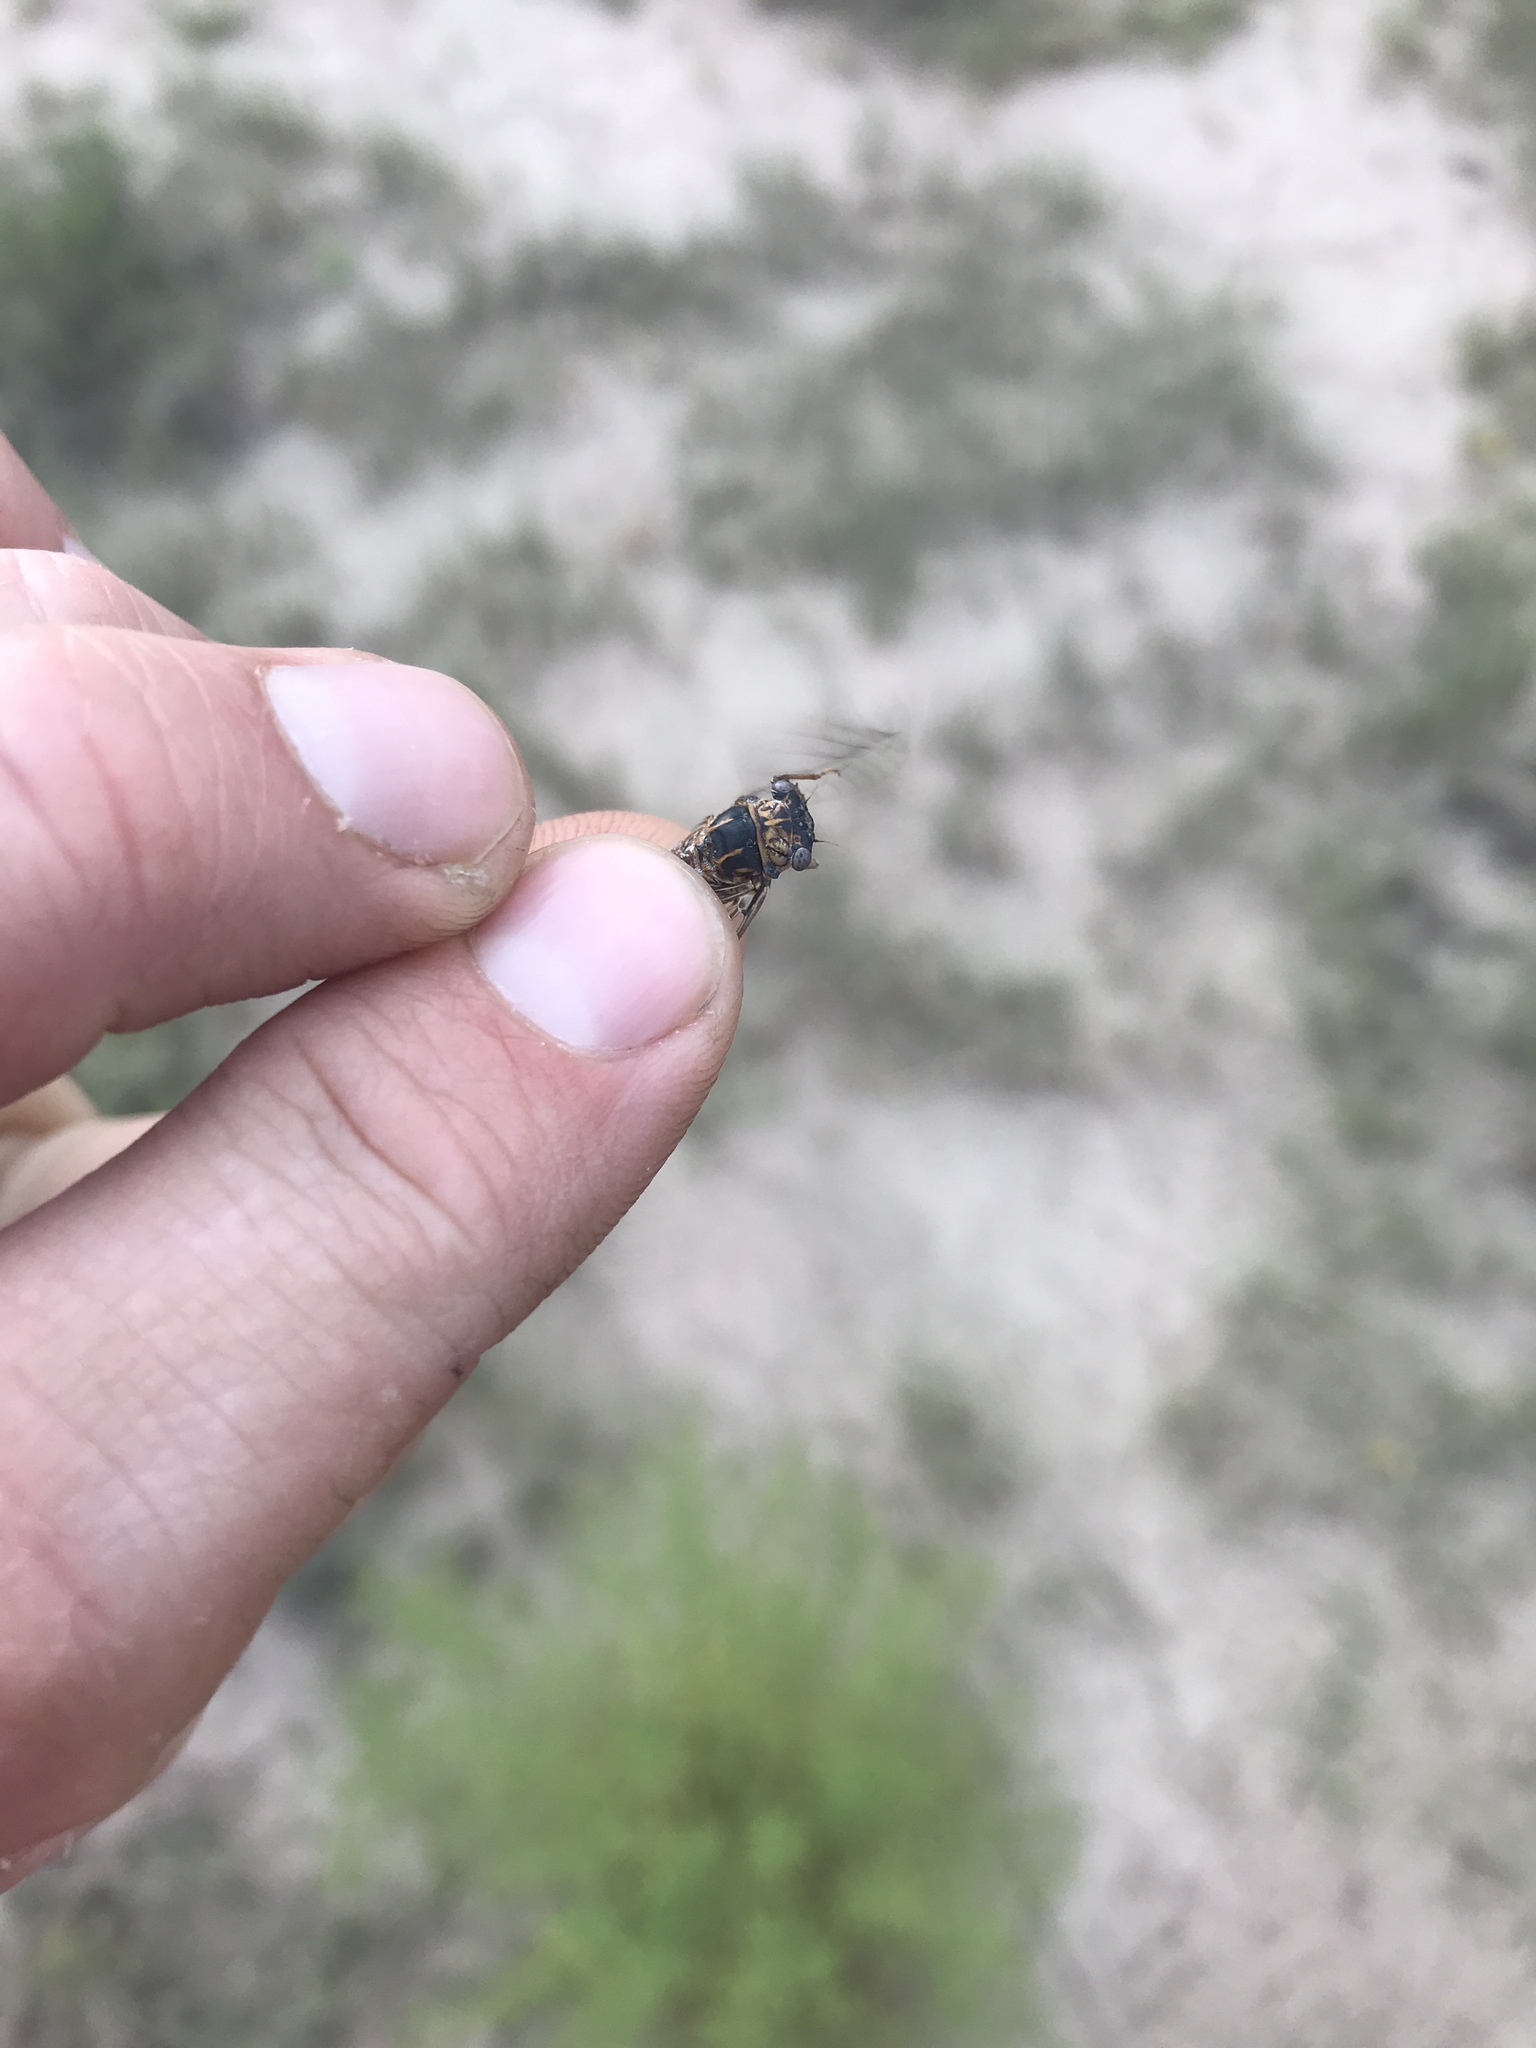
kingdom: Animalia
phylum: Arthropoda
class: Insecta
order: Hemiptera
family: Cicadidae
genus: Pacarina
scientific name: Pacarina puella
